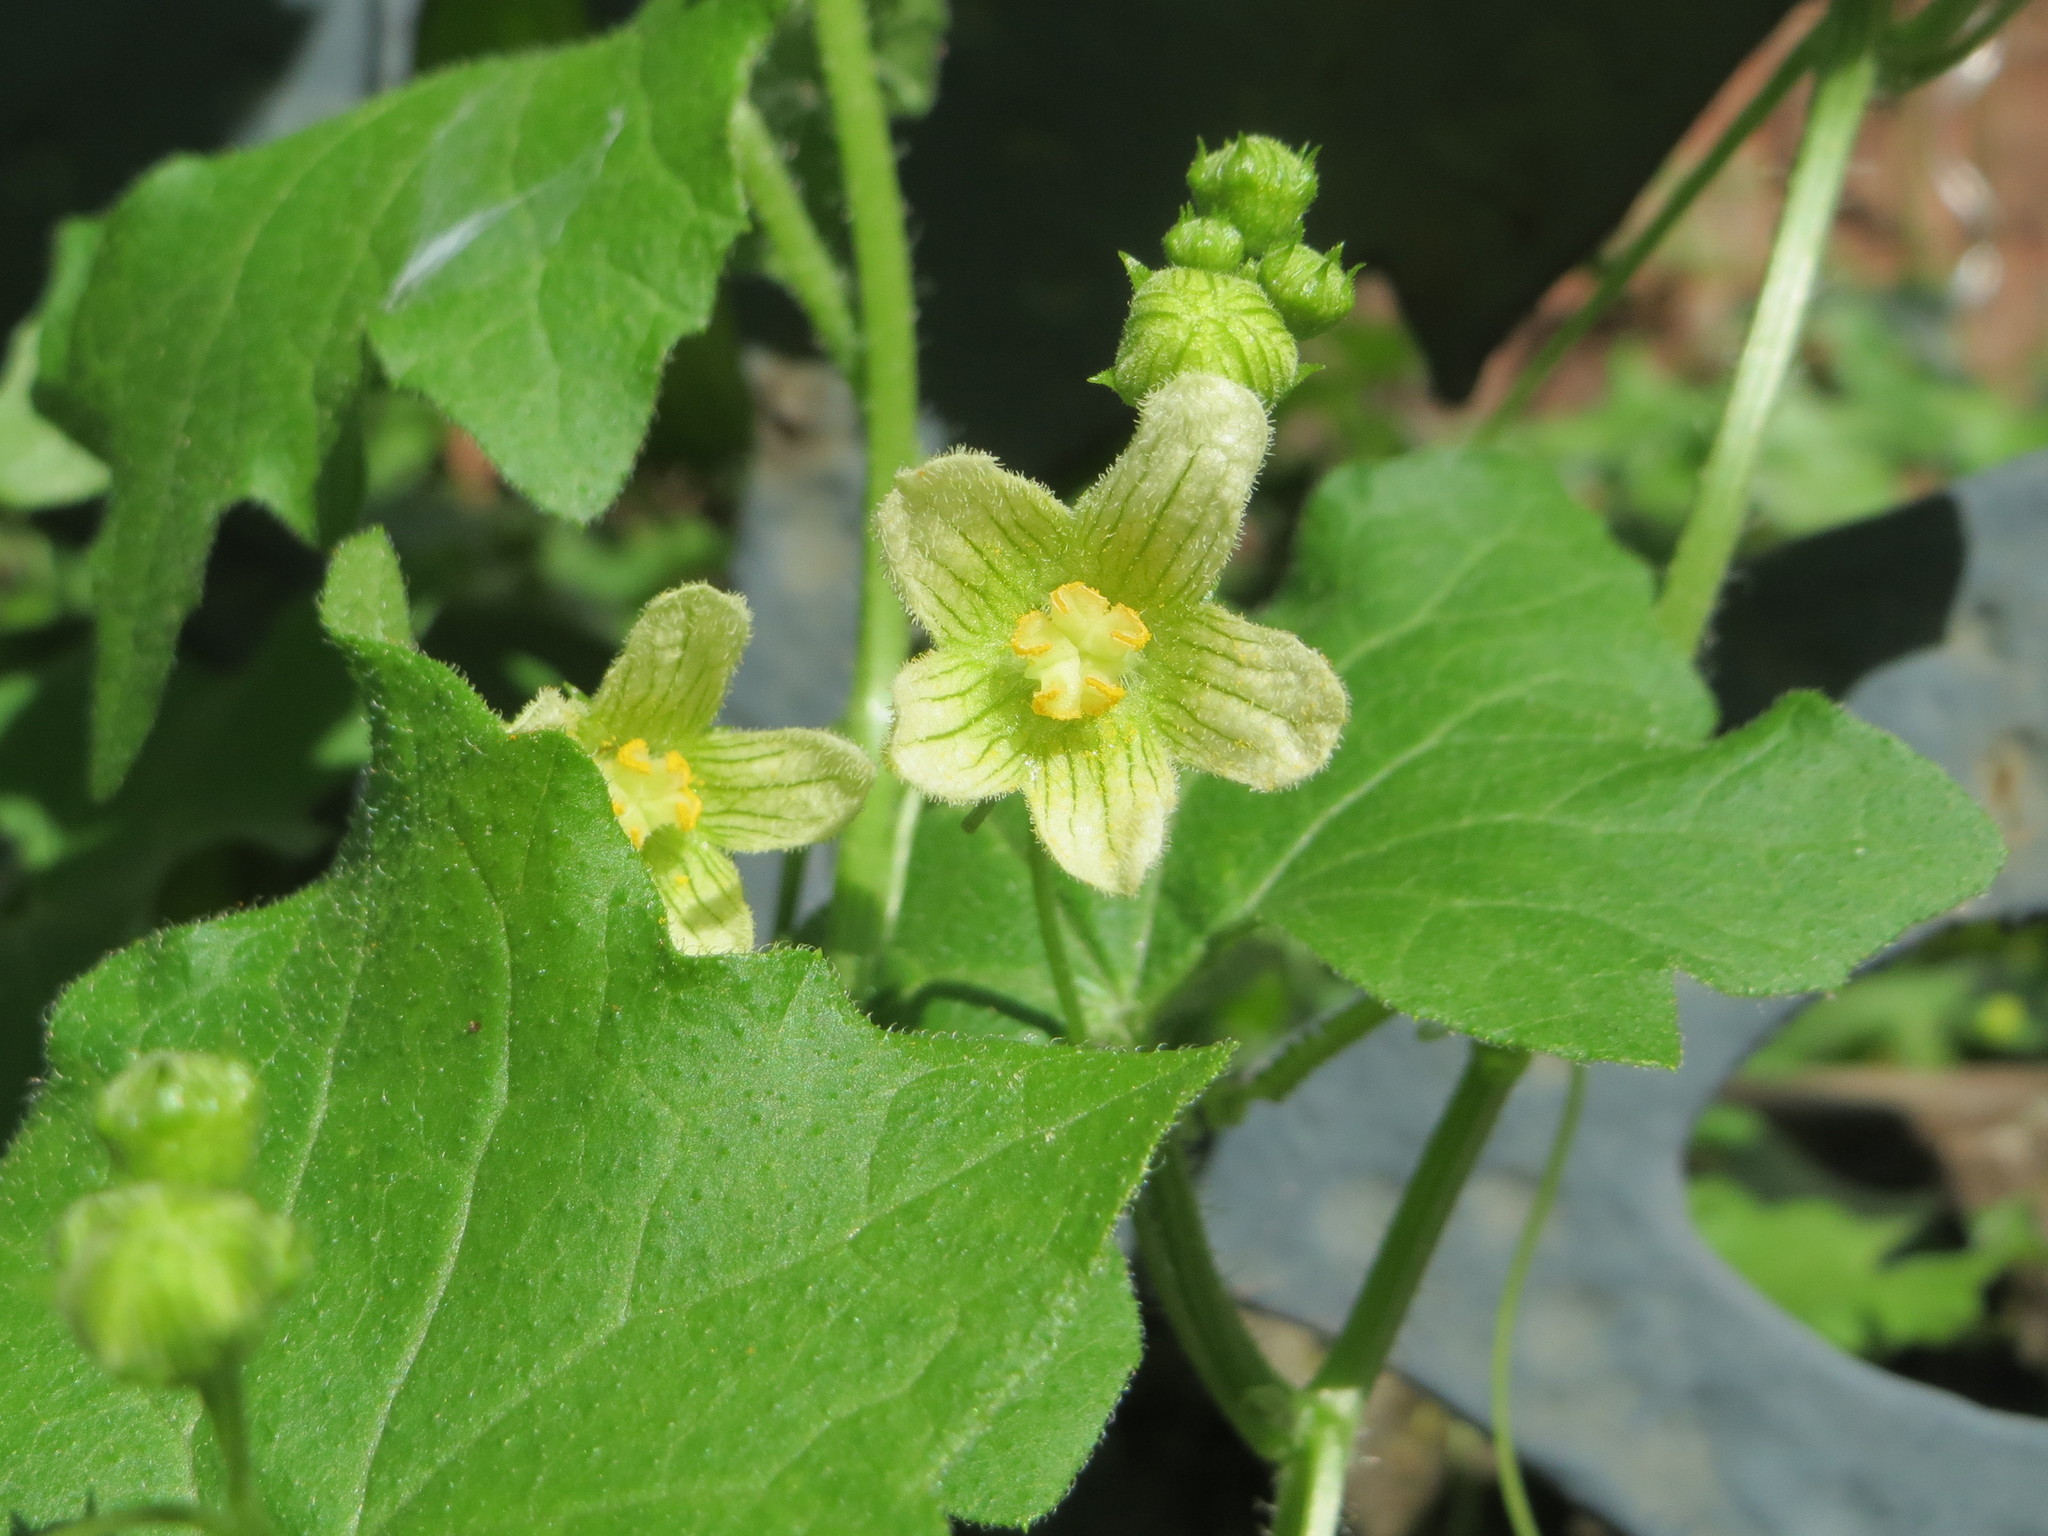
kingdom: Plantae
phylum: Tracheophyta
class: Magnoliopsida
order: Cucurbitales
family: Cucurbitaceae
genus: Bryonia
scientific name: Bryonia dioica
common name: White bryony
